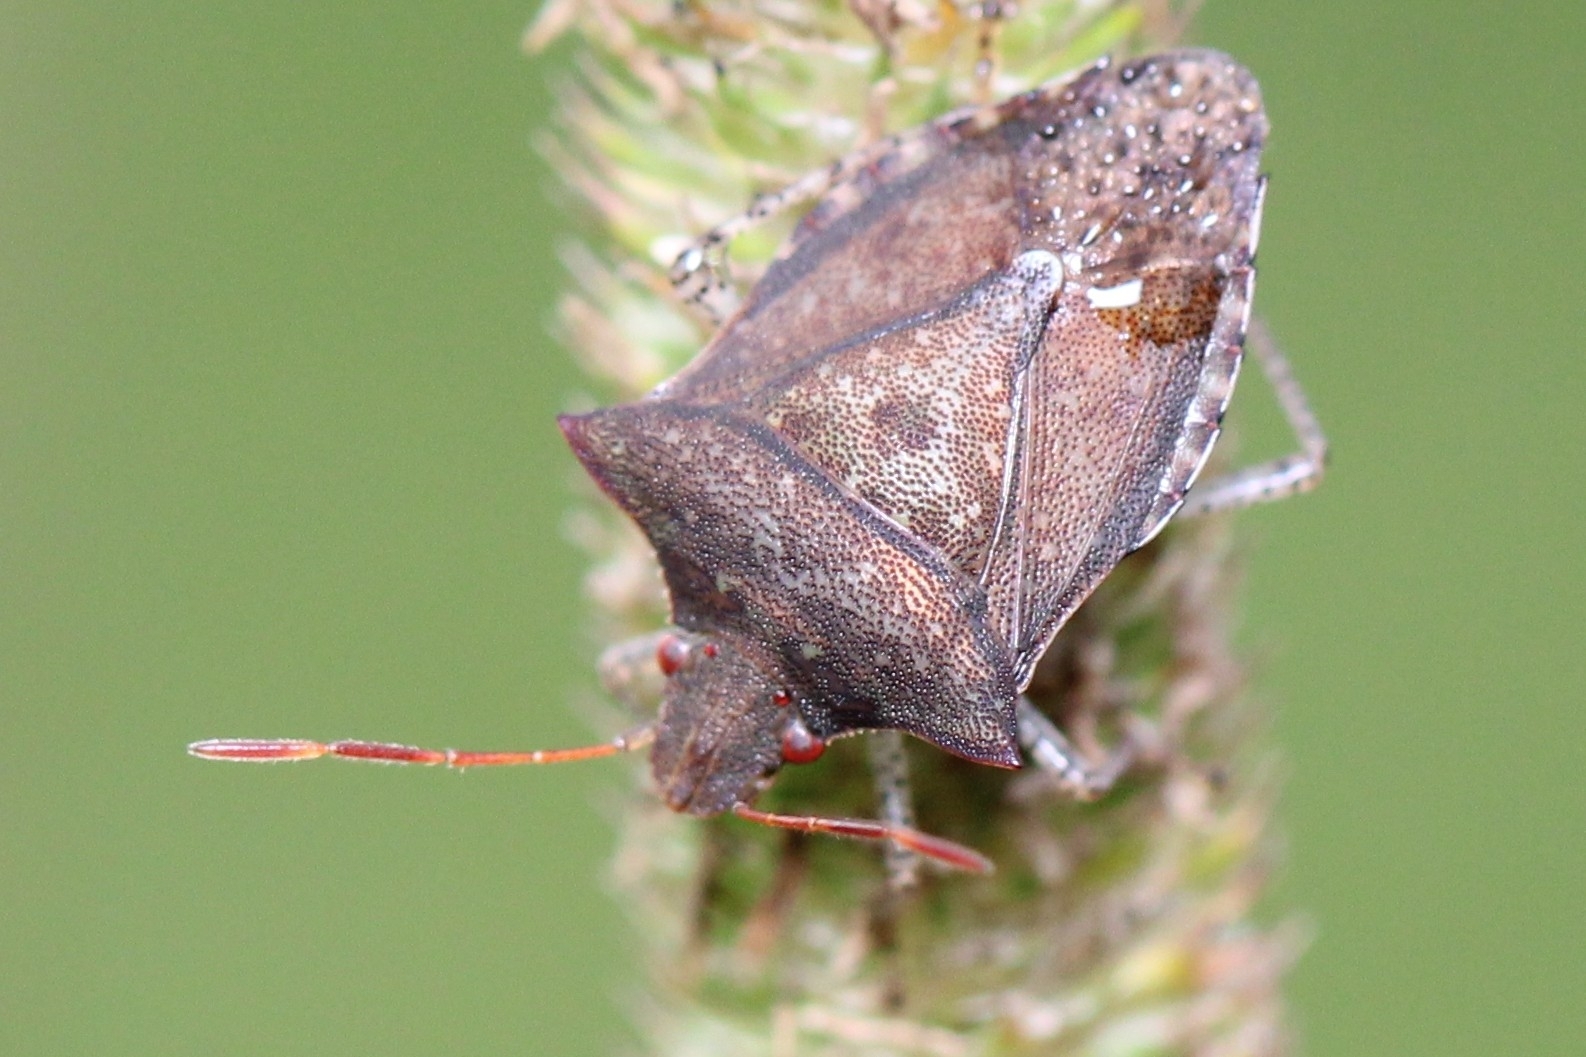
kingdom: Animalia
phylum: Arthropoda
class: Insecta
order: Hemiptera
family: Pentatomidae
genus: Euschistus
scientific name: Euschistus
